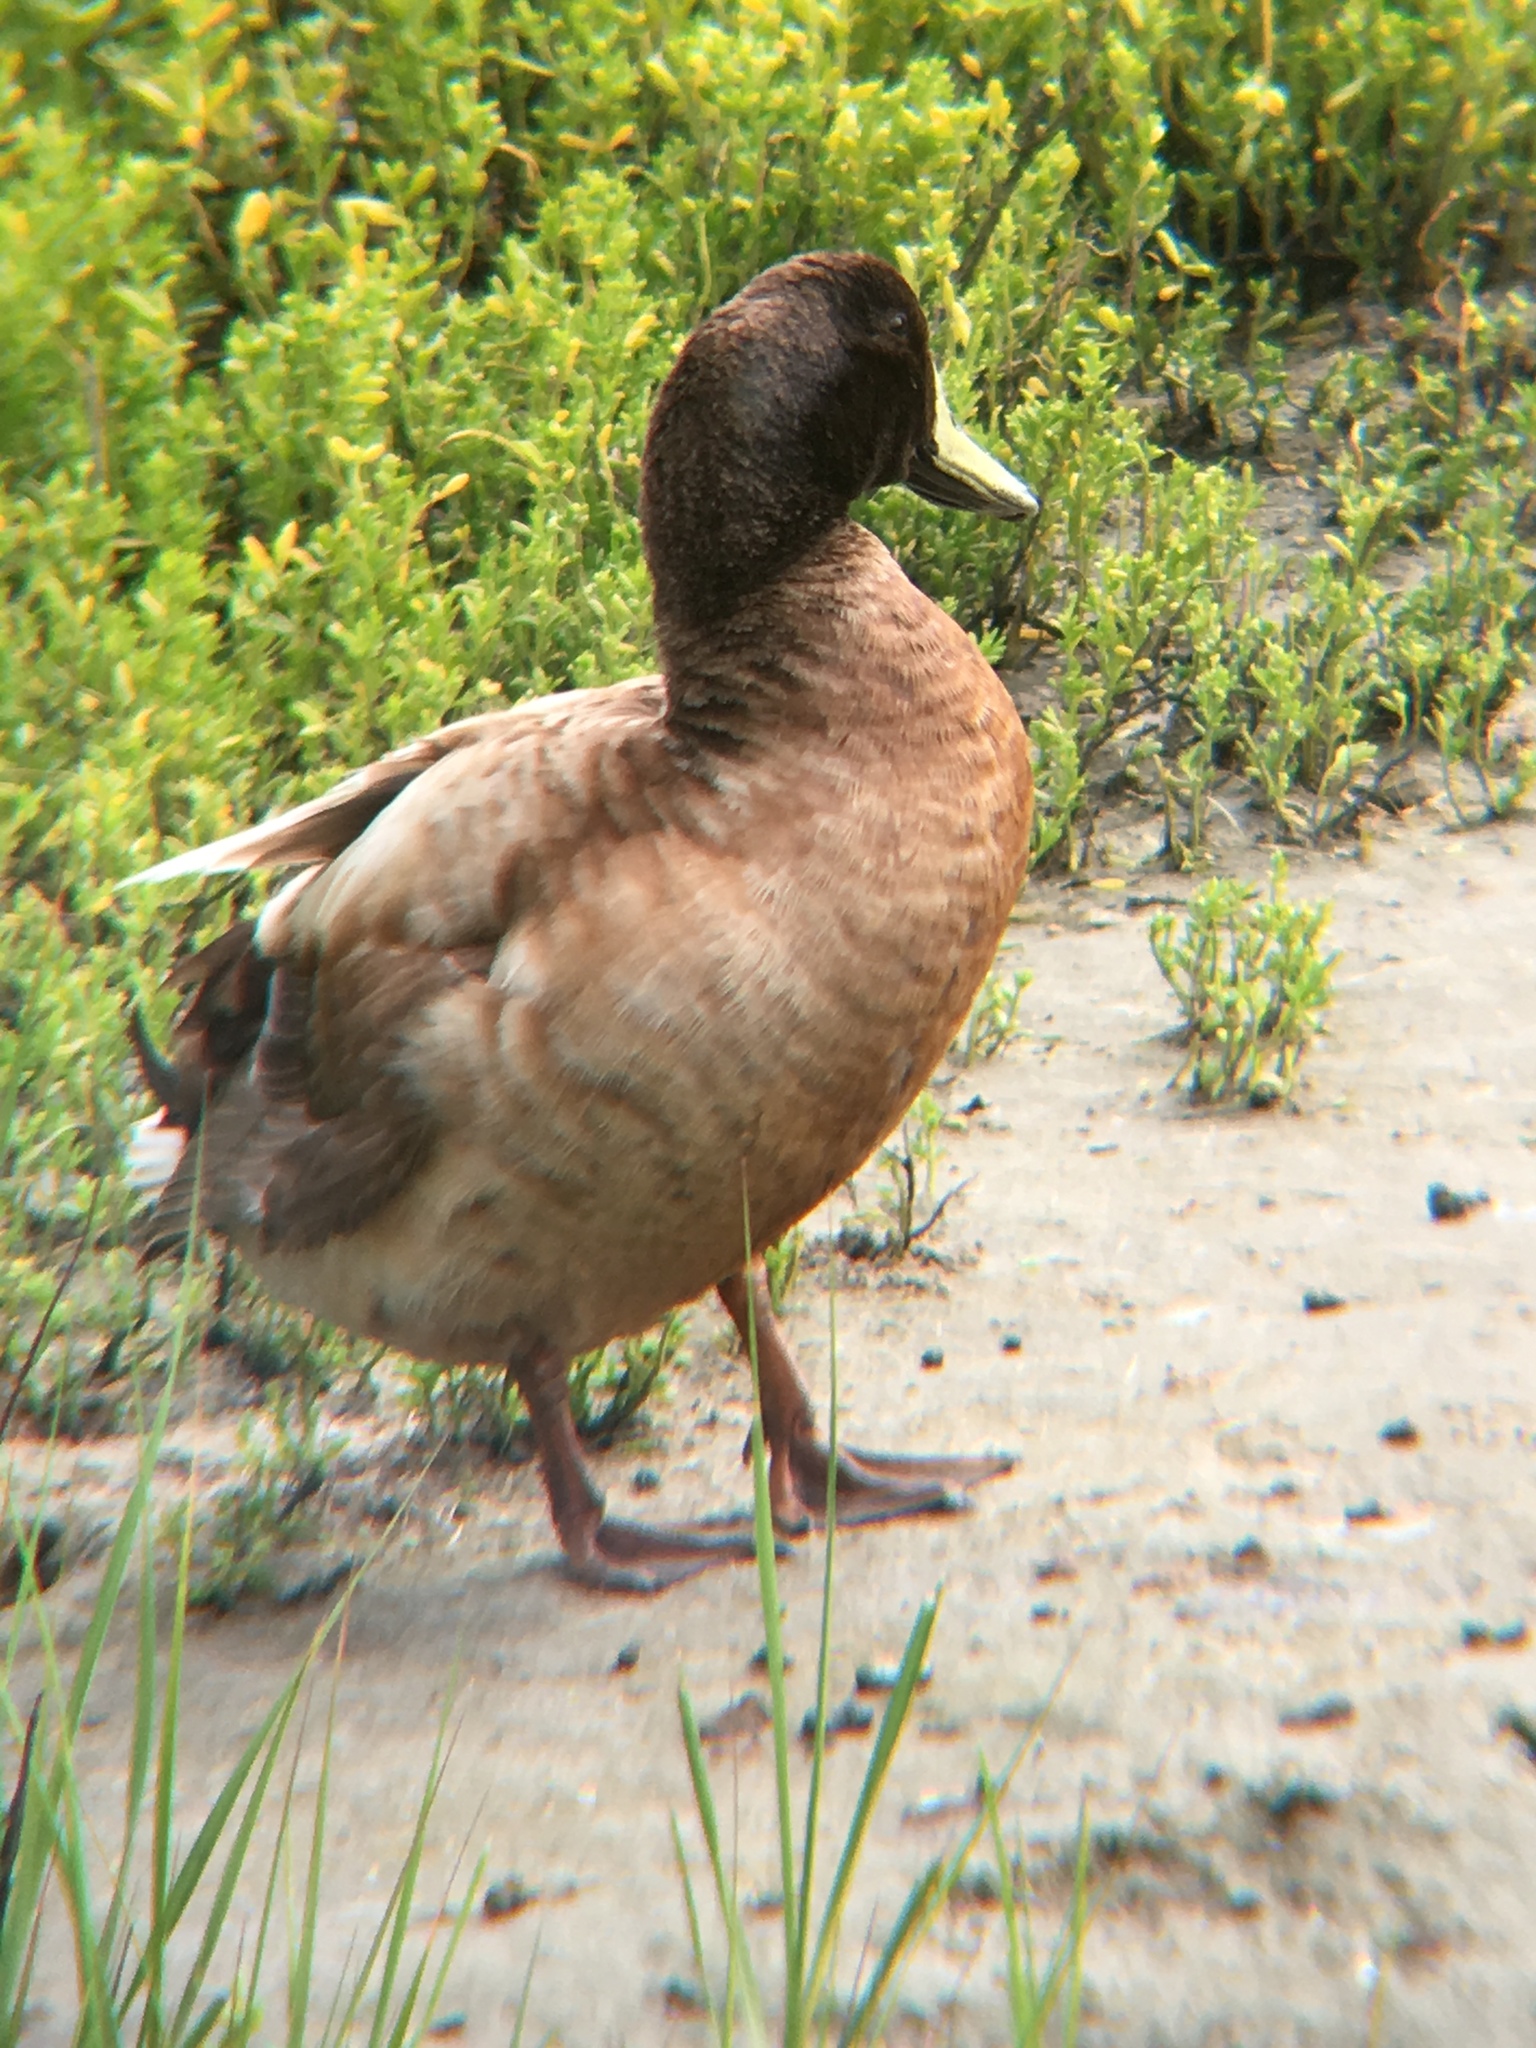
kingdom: Animalia
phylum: Chordata
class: Aves
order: Anseriformes
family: Anatidae
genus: Anas
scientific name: Anas platyrhynchos
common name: Mallard
